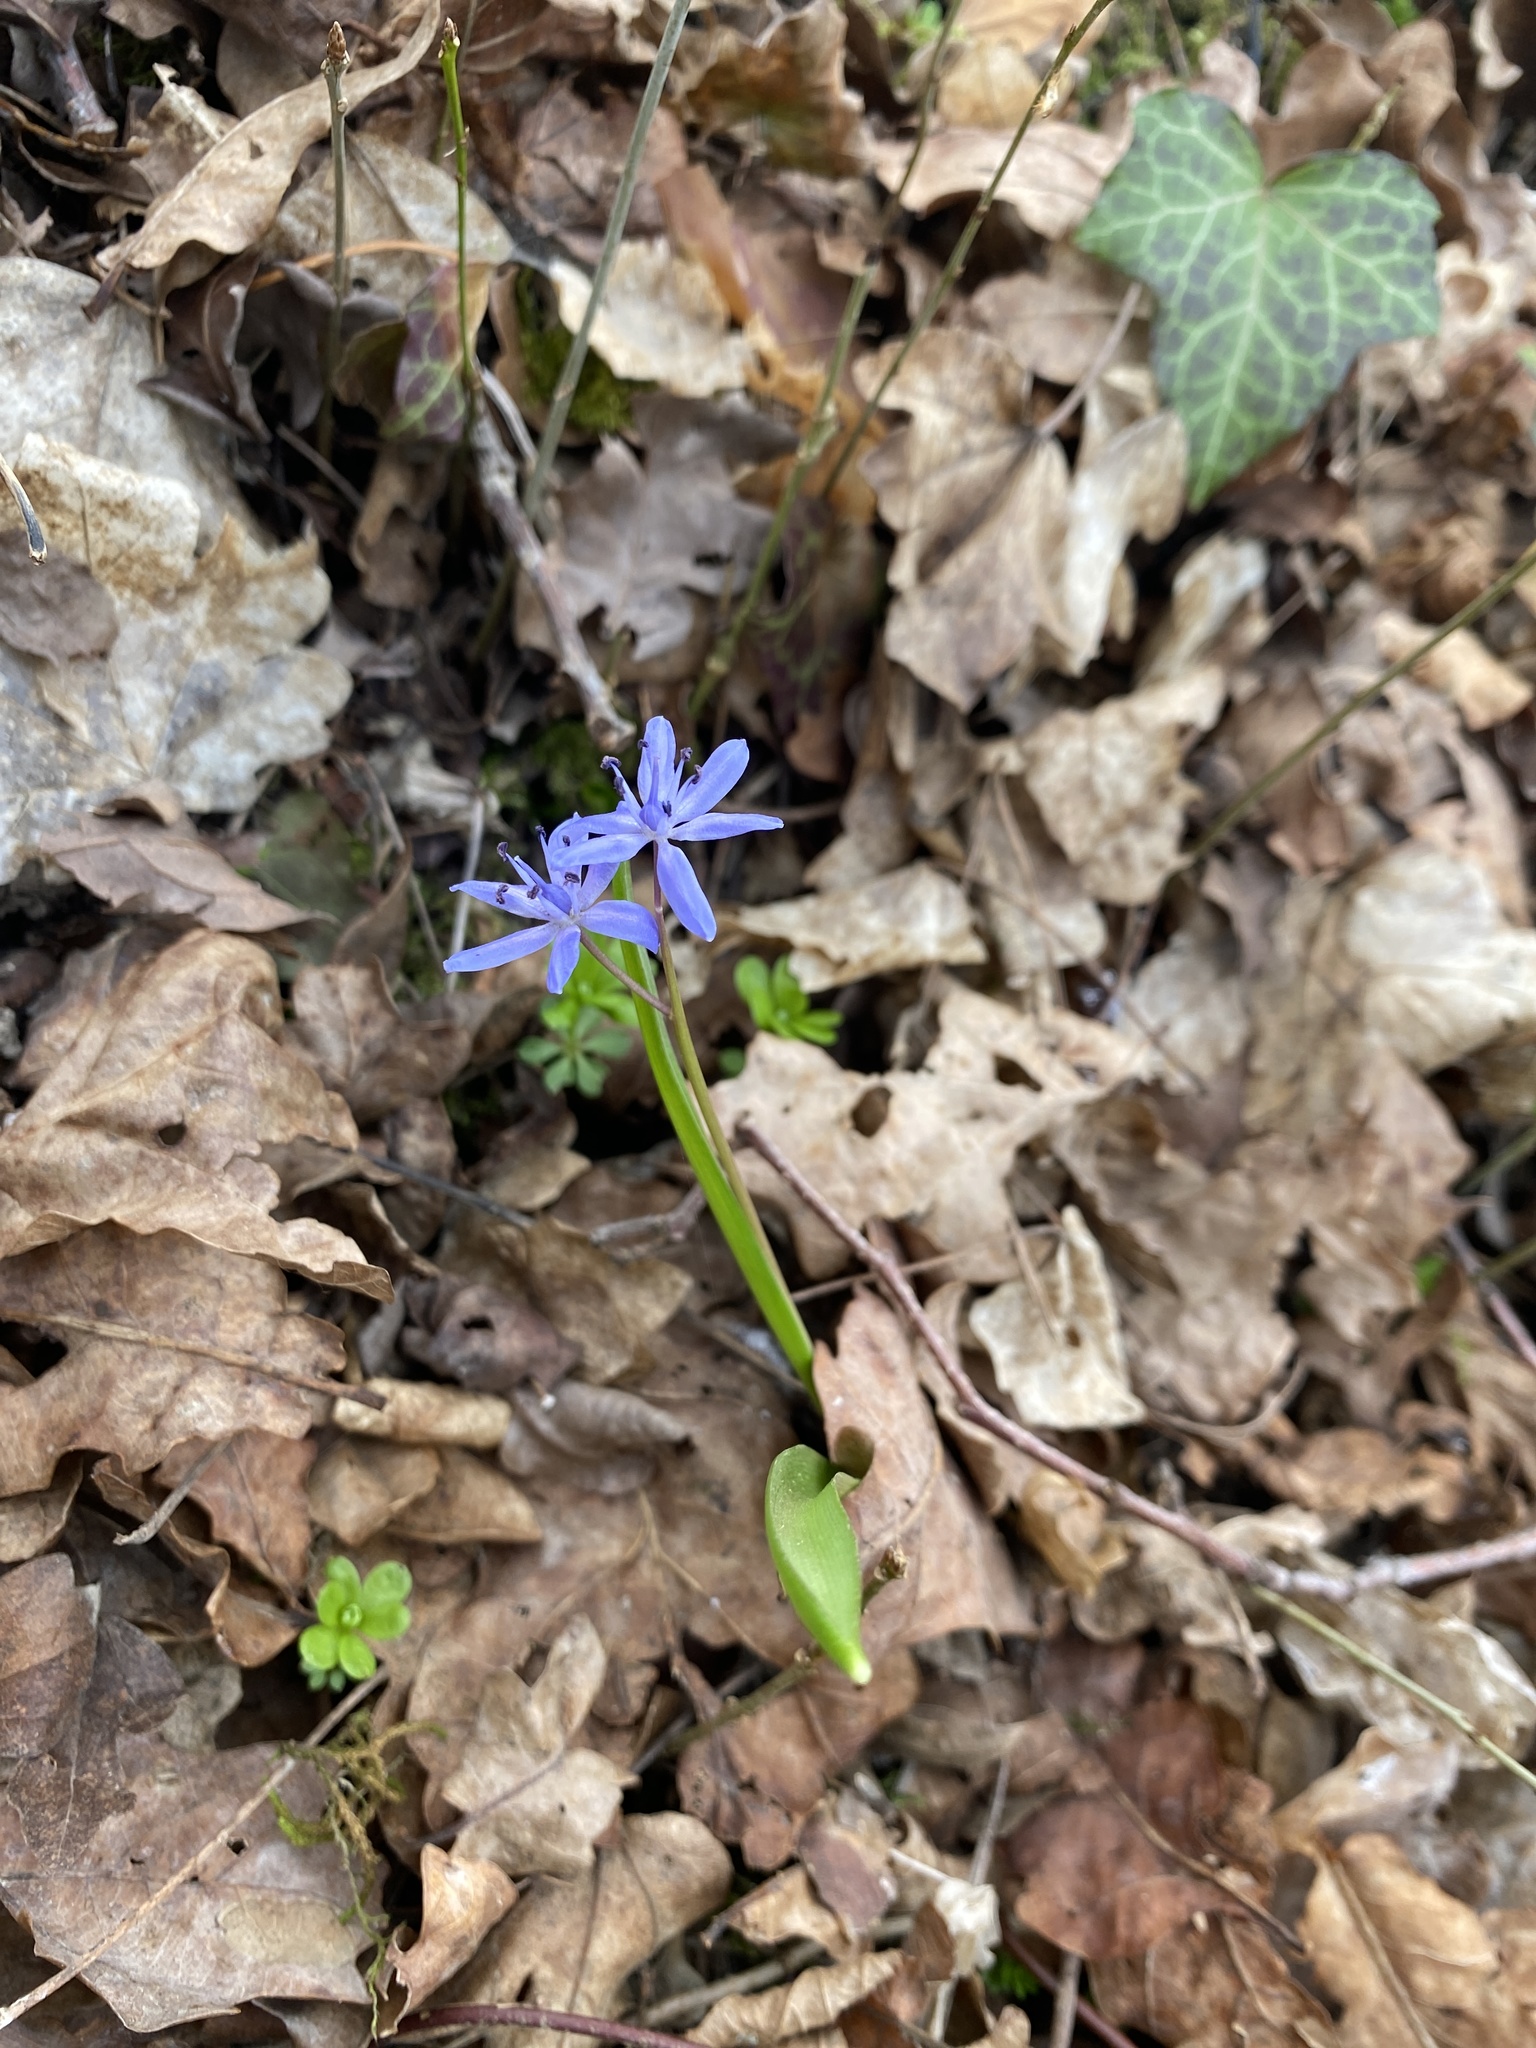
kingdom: Plantae
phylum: Tracheophyta
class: Liliopsida
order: Asparagales
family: Asparagaceae
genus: Scilla
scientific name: Scilla bifolia
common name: Alpine squill
